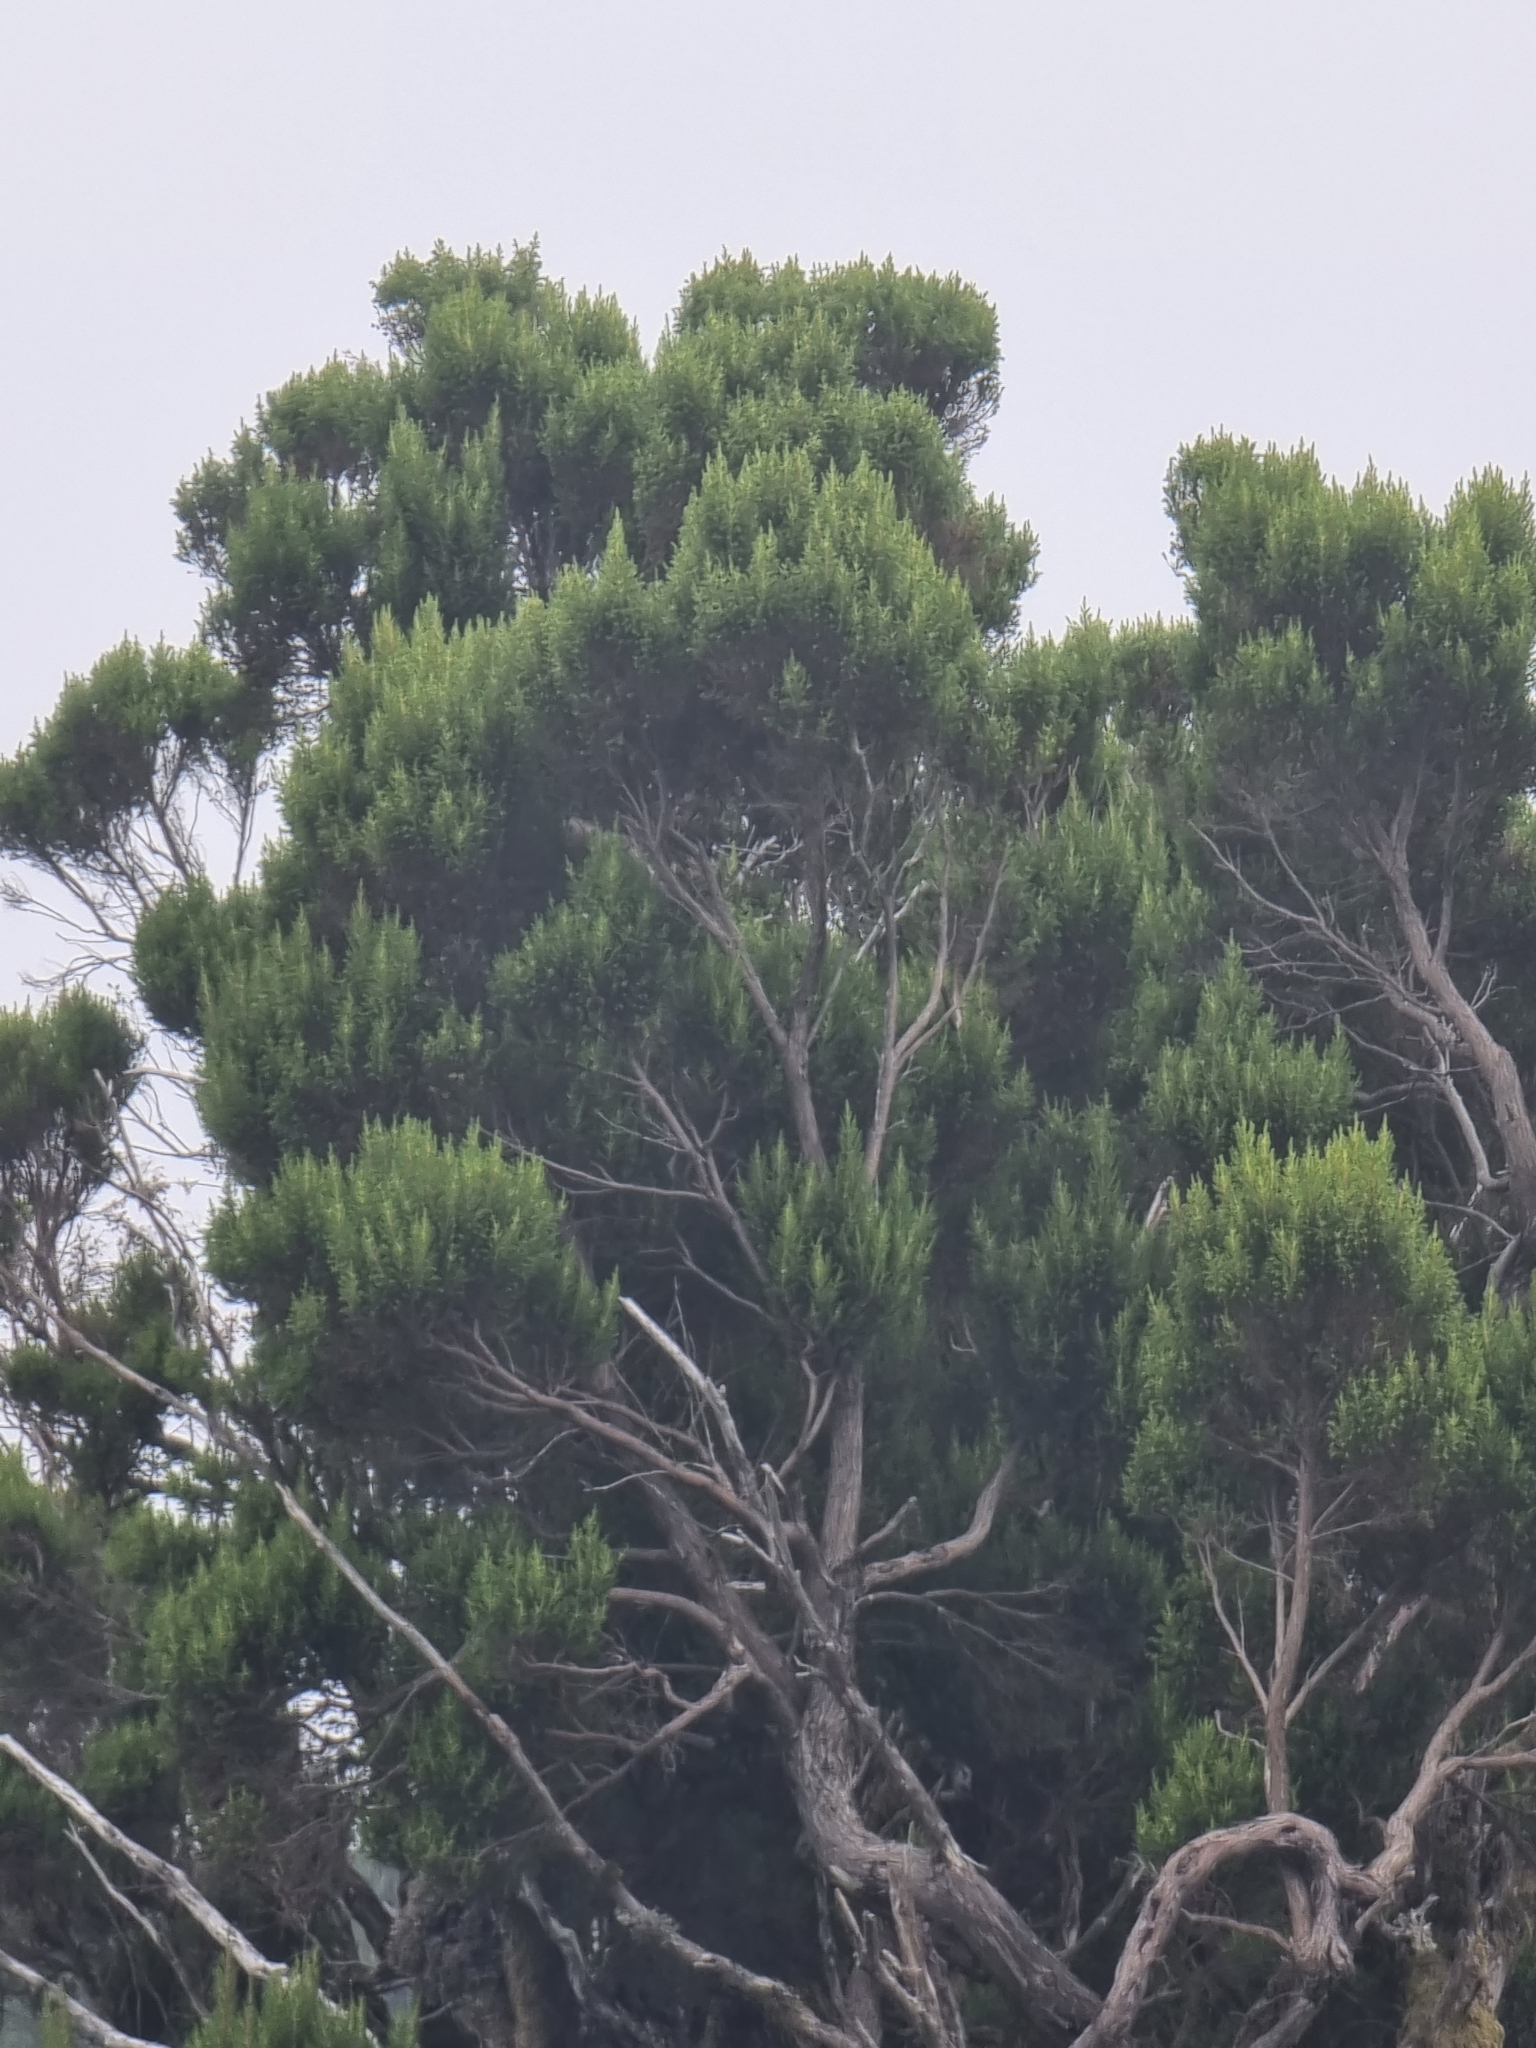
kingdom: Plantae
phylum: Tracheophyta
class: Magnoliopsida
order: Ericales
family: Ericaceae
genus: Erica
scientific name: Erica canariensis
